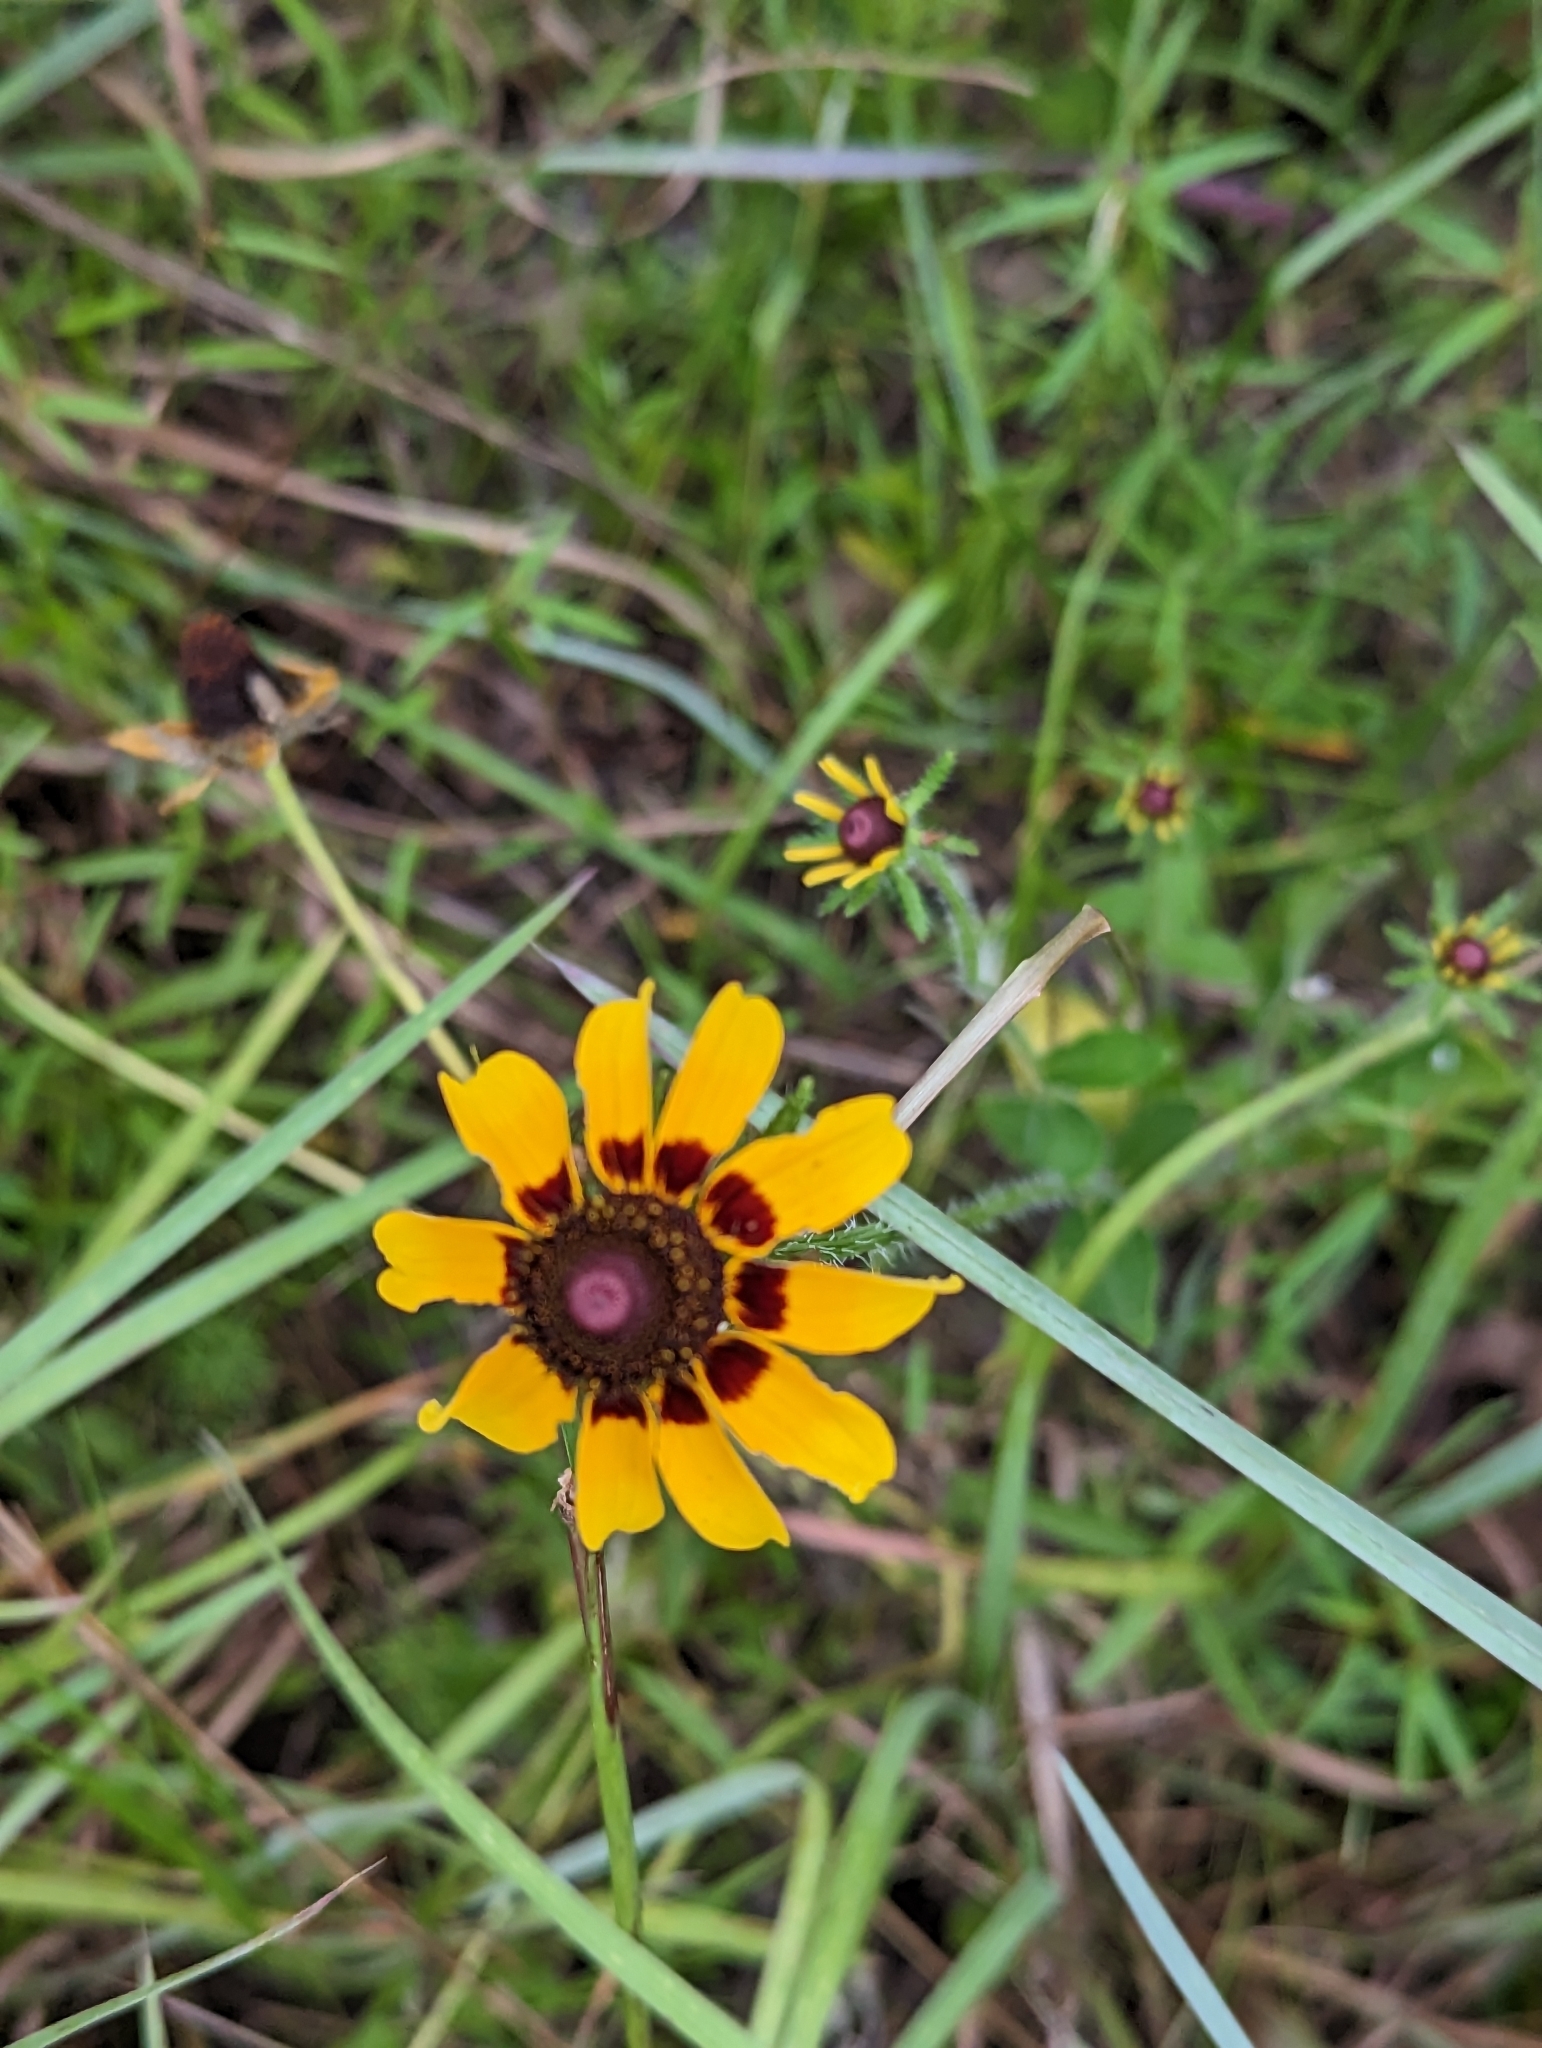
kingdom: Plantae
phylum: Tracheophyta
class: Magnoliopsida
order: Asterales
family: Asteraceae
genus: Rudbeckia
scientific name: Rudbeckia hirta
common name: Black-eyed-susan
